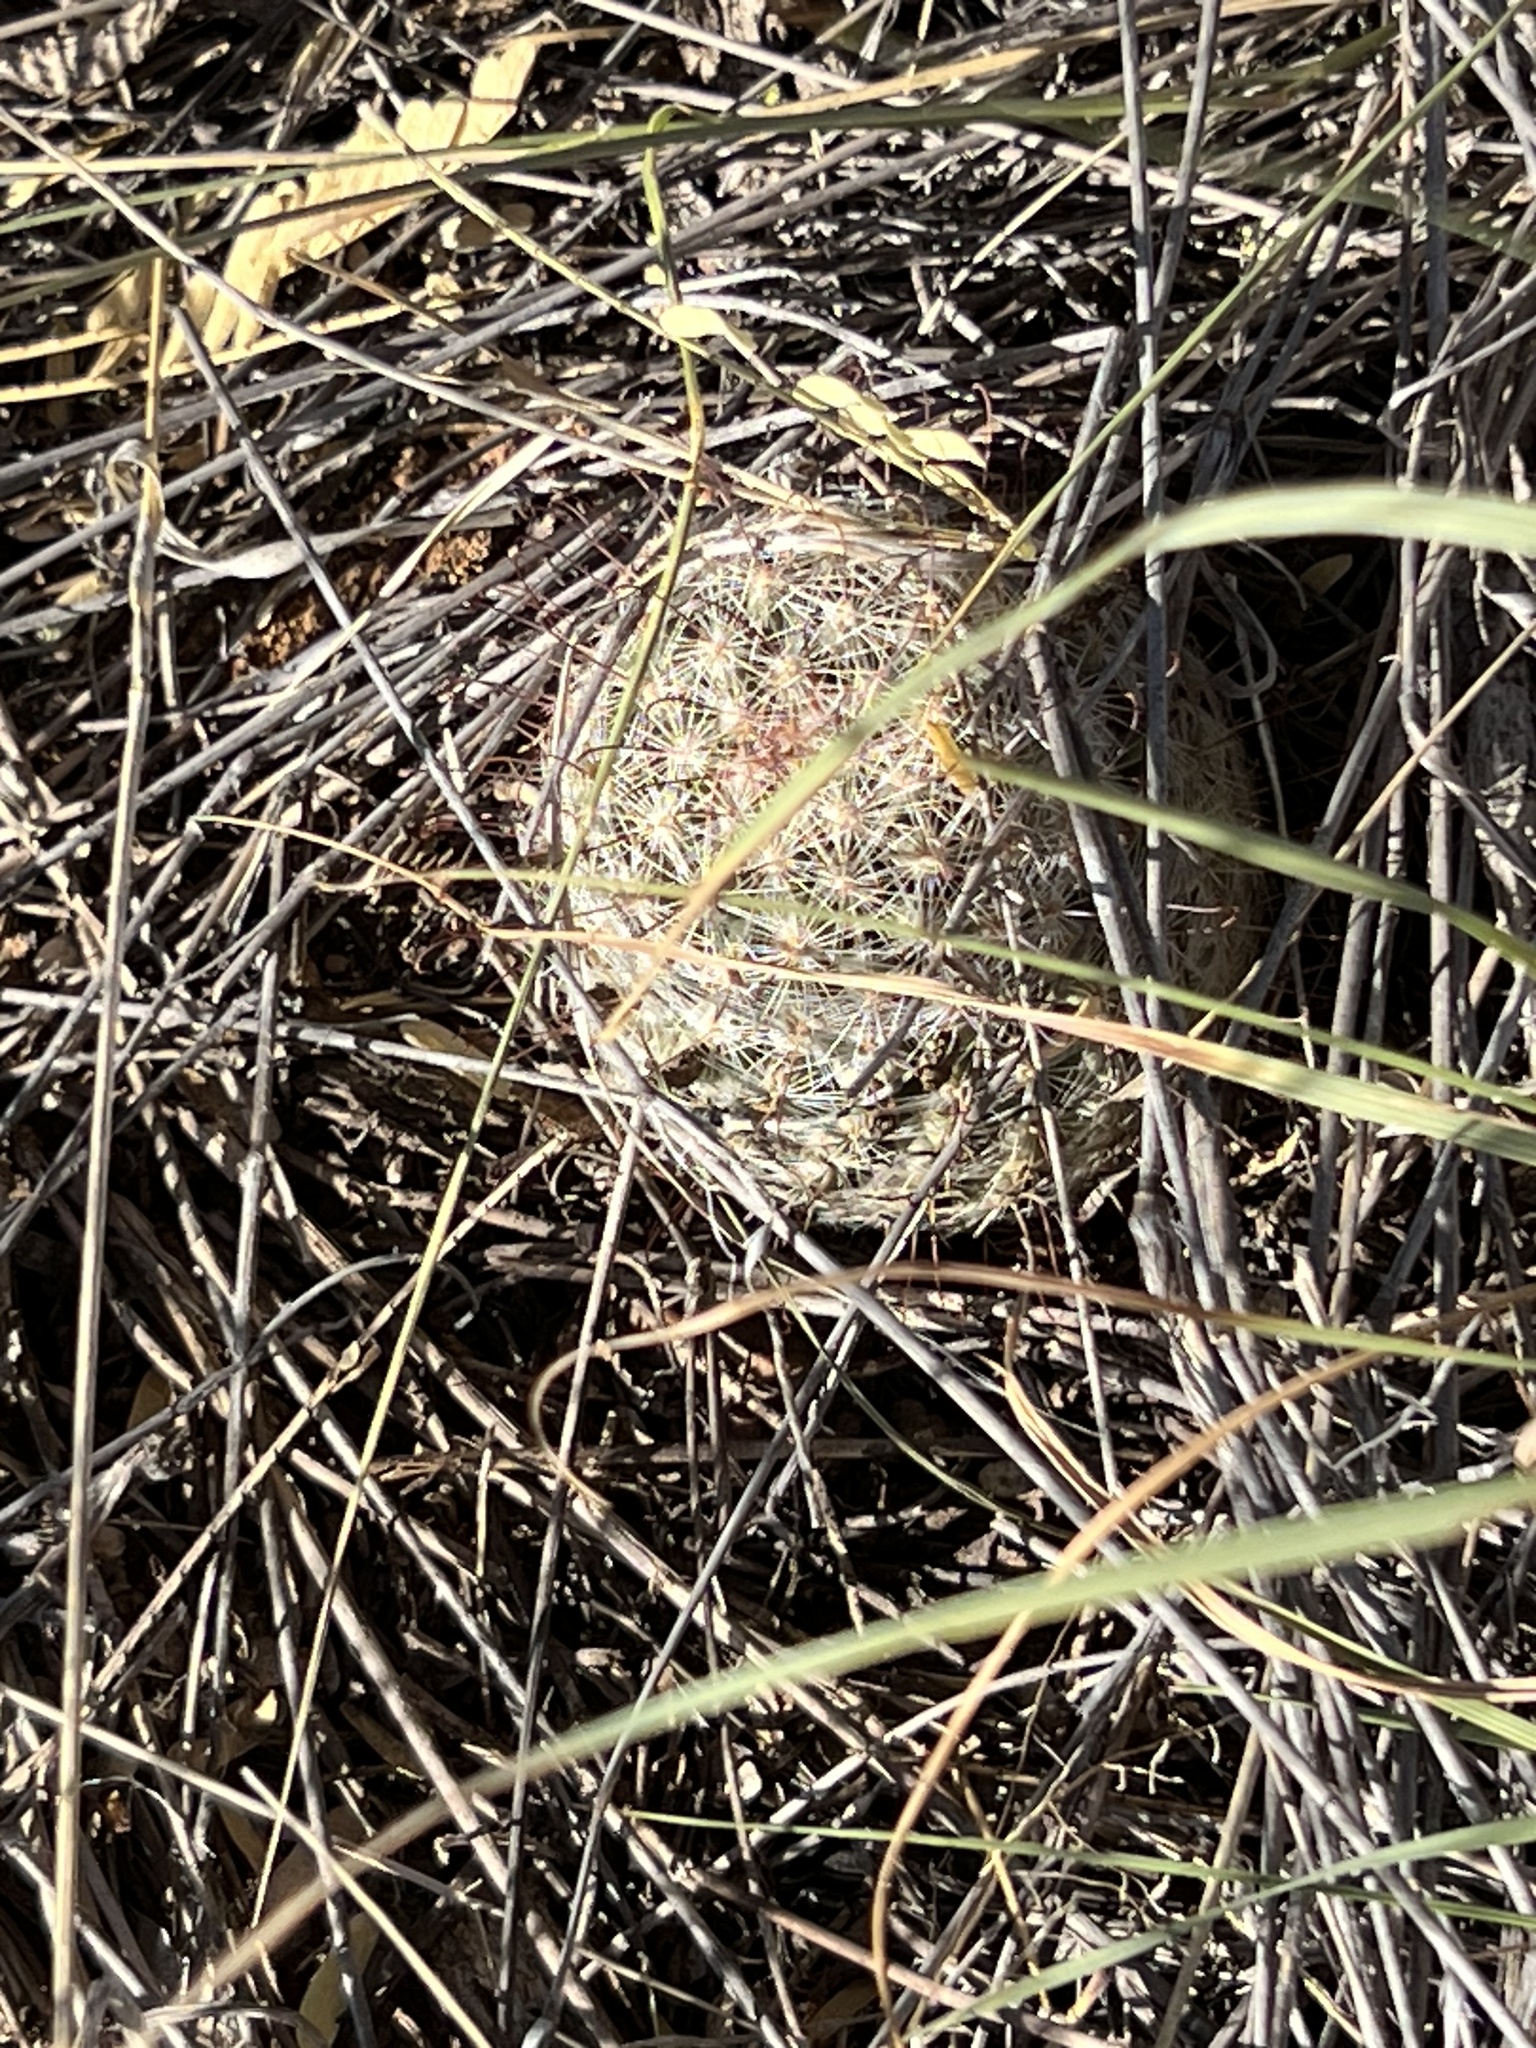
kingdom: Plantae
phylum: Tracheophyta
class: Magnoliopsida
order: Caryophyllales
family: Cactaceae
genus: Cochemiea
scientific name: Cochemiea grahamii
